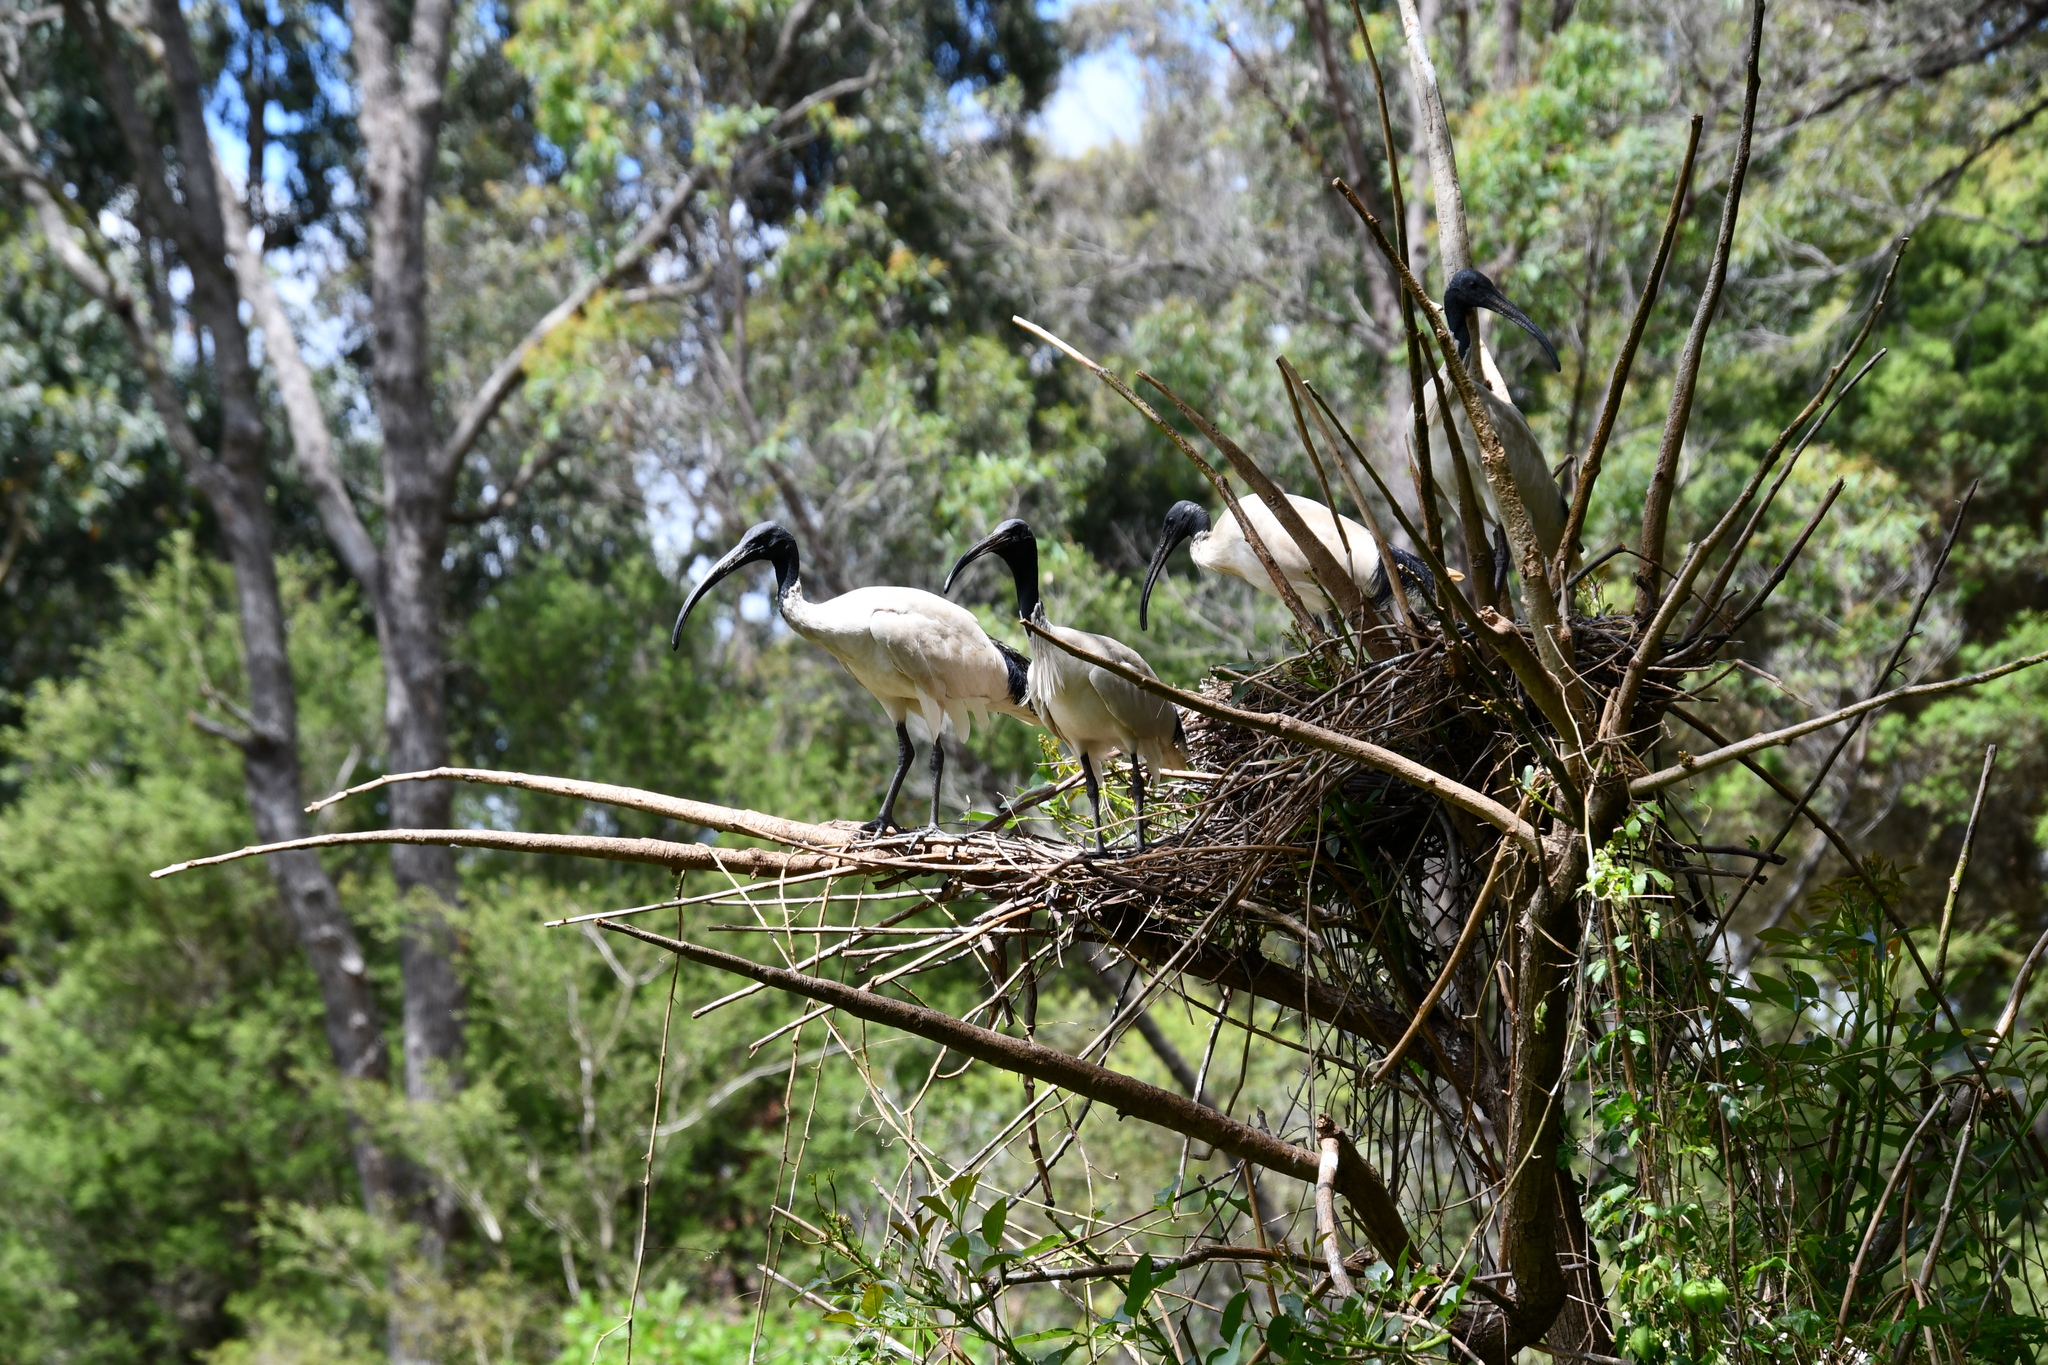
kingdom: Animalia
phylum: Chordata
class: Aves
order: Pelecaniformes
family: Threskiornithidae
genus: Threskiornis
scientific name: Threskiornis molucca
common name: Australian white ibis
